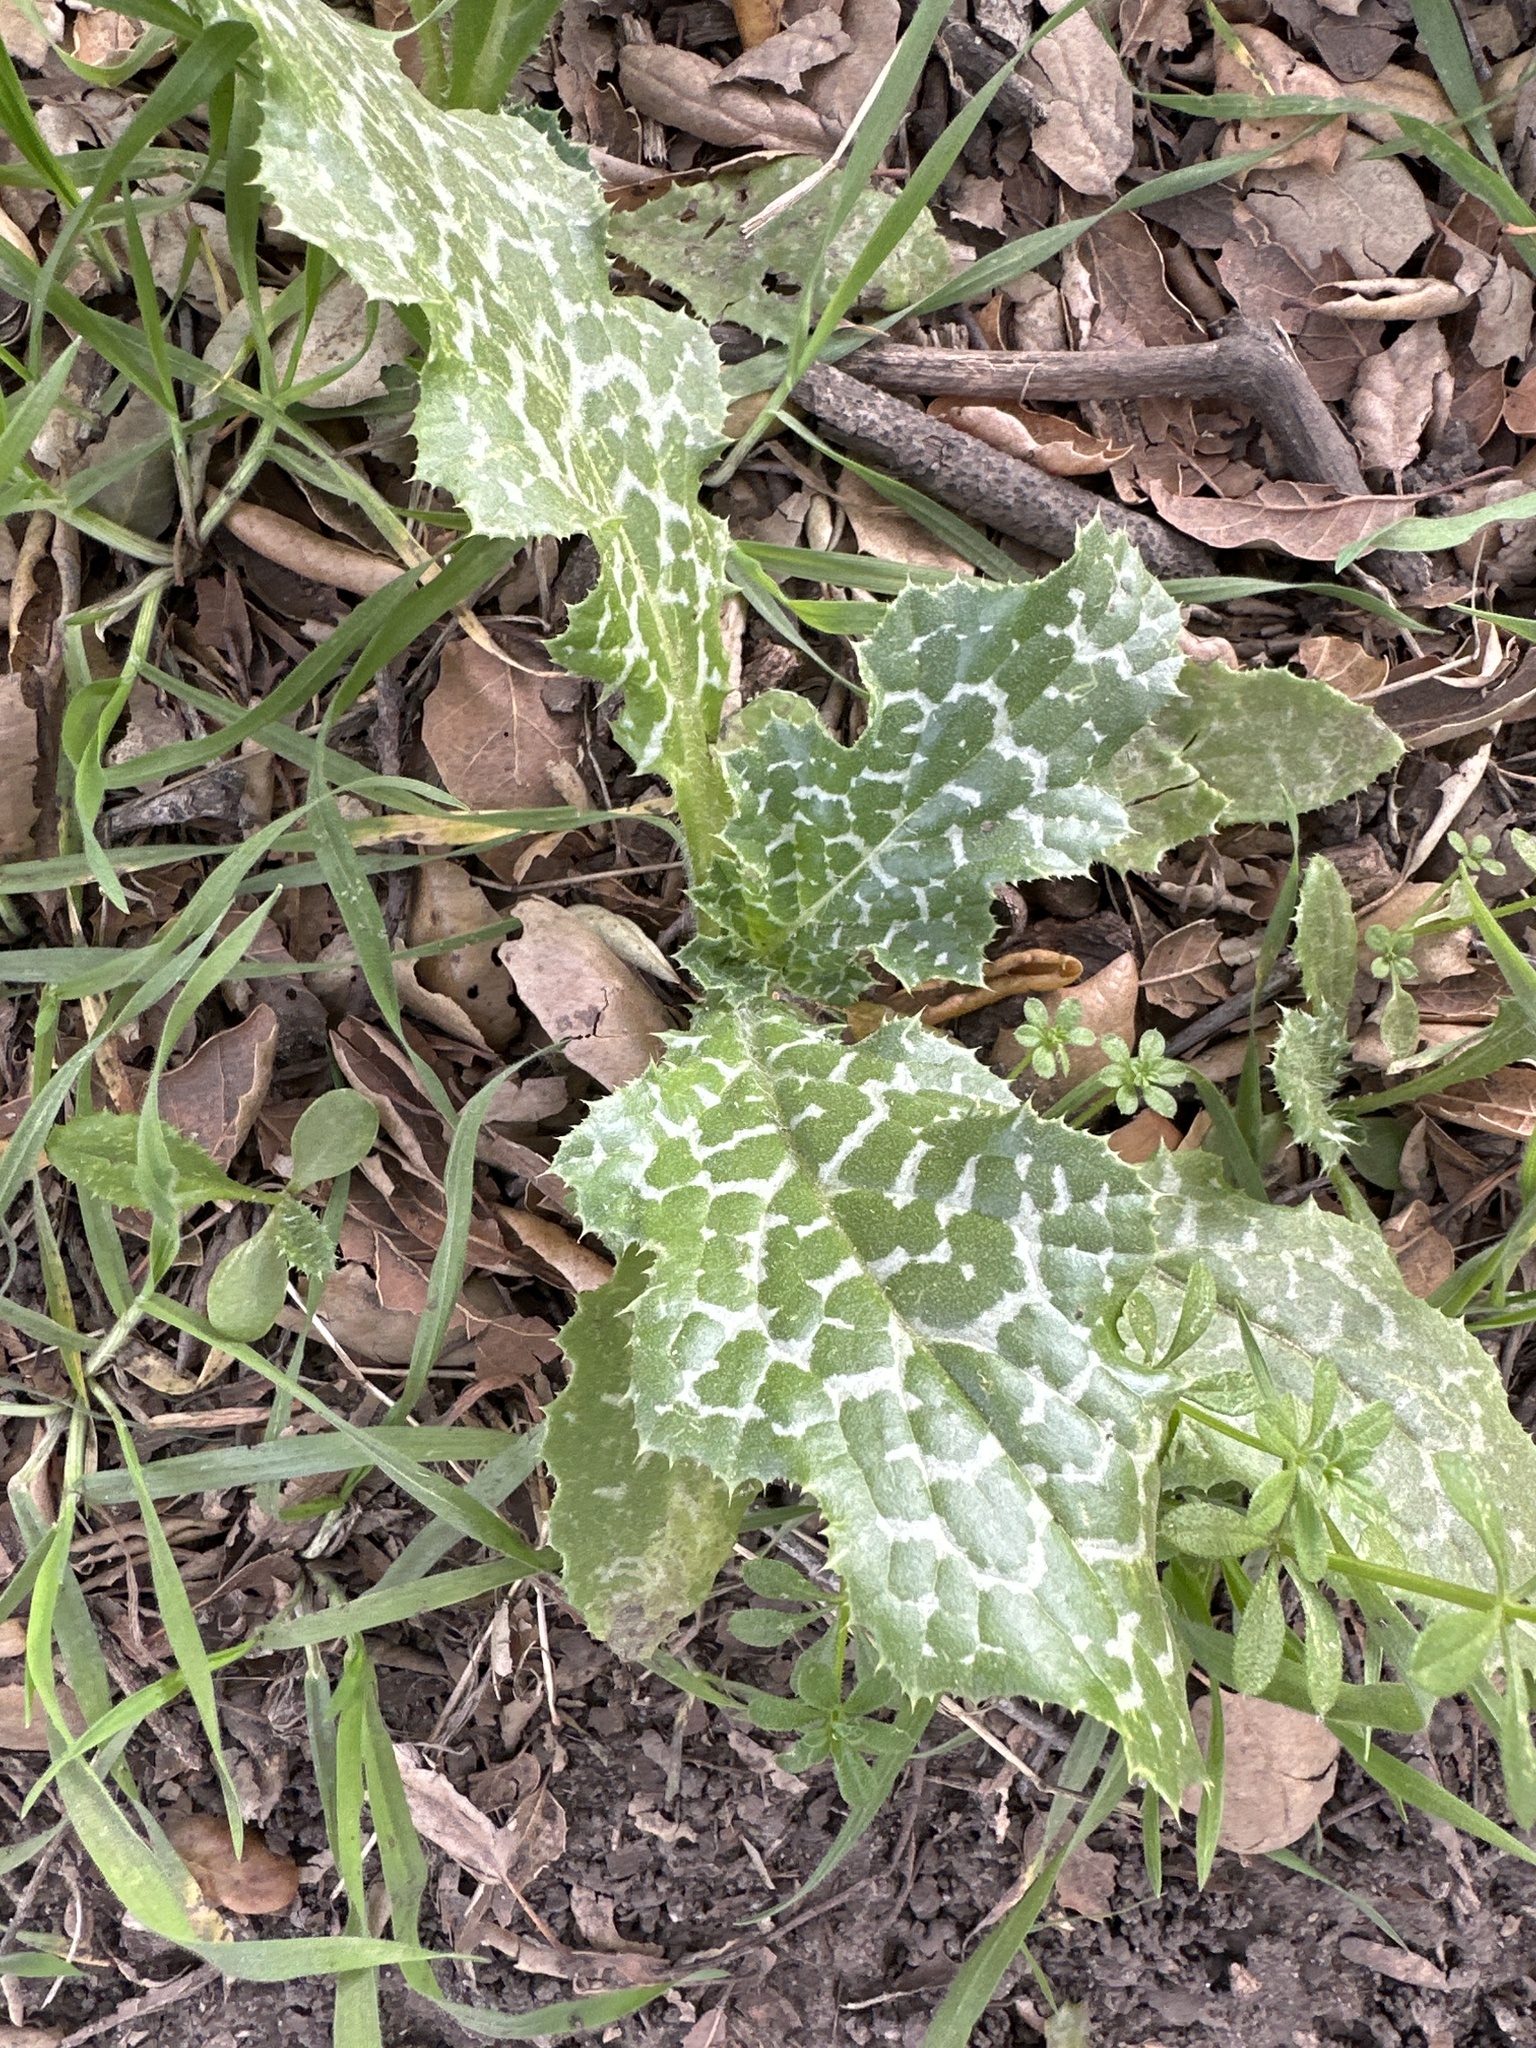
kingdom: Plantae
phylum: Tracheophyta
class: Magnoliopsida
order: Asterales
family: Asteraceae
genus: Silybum
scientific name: Silybum marianum
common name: Milk thistle
